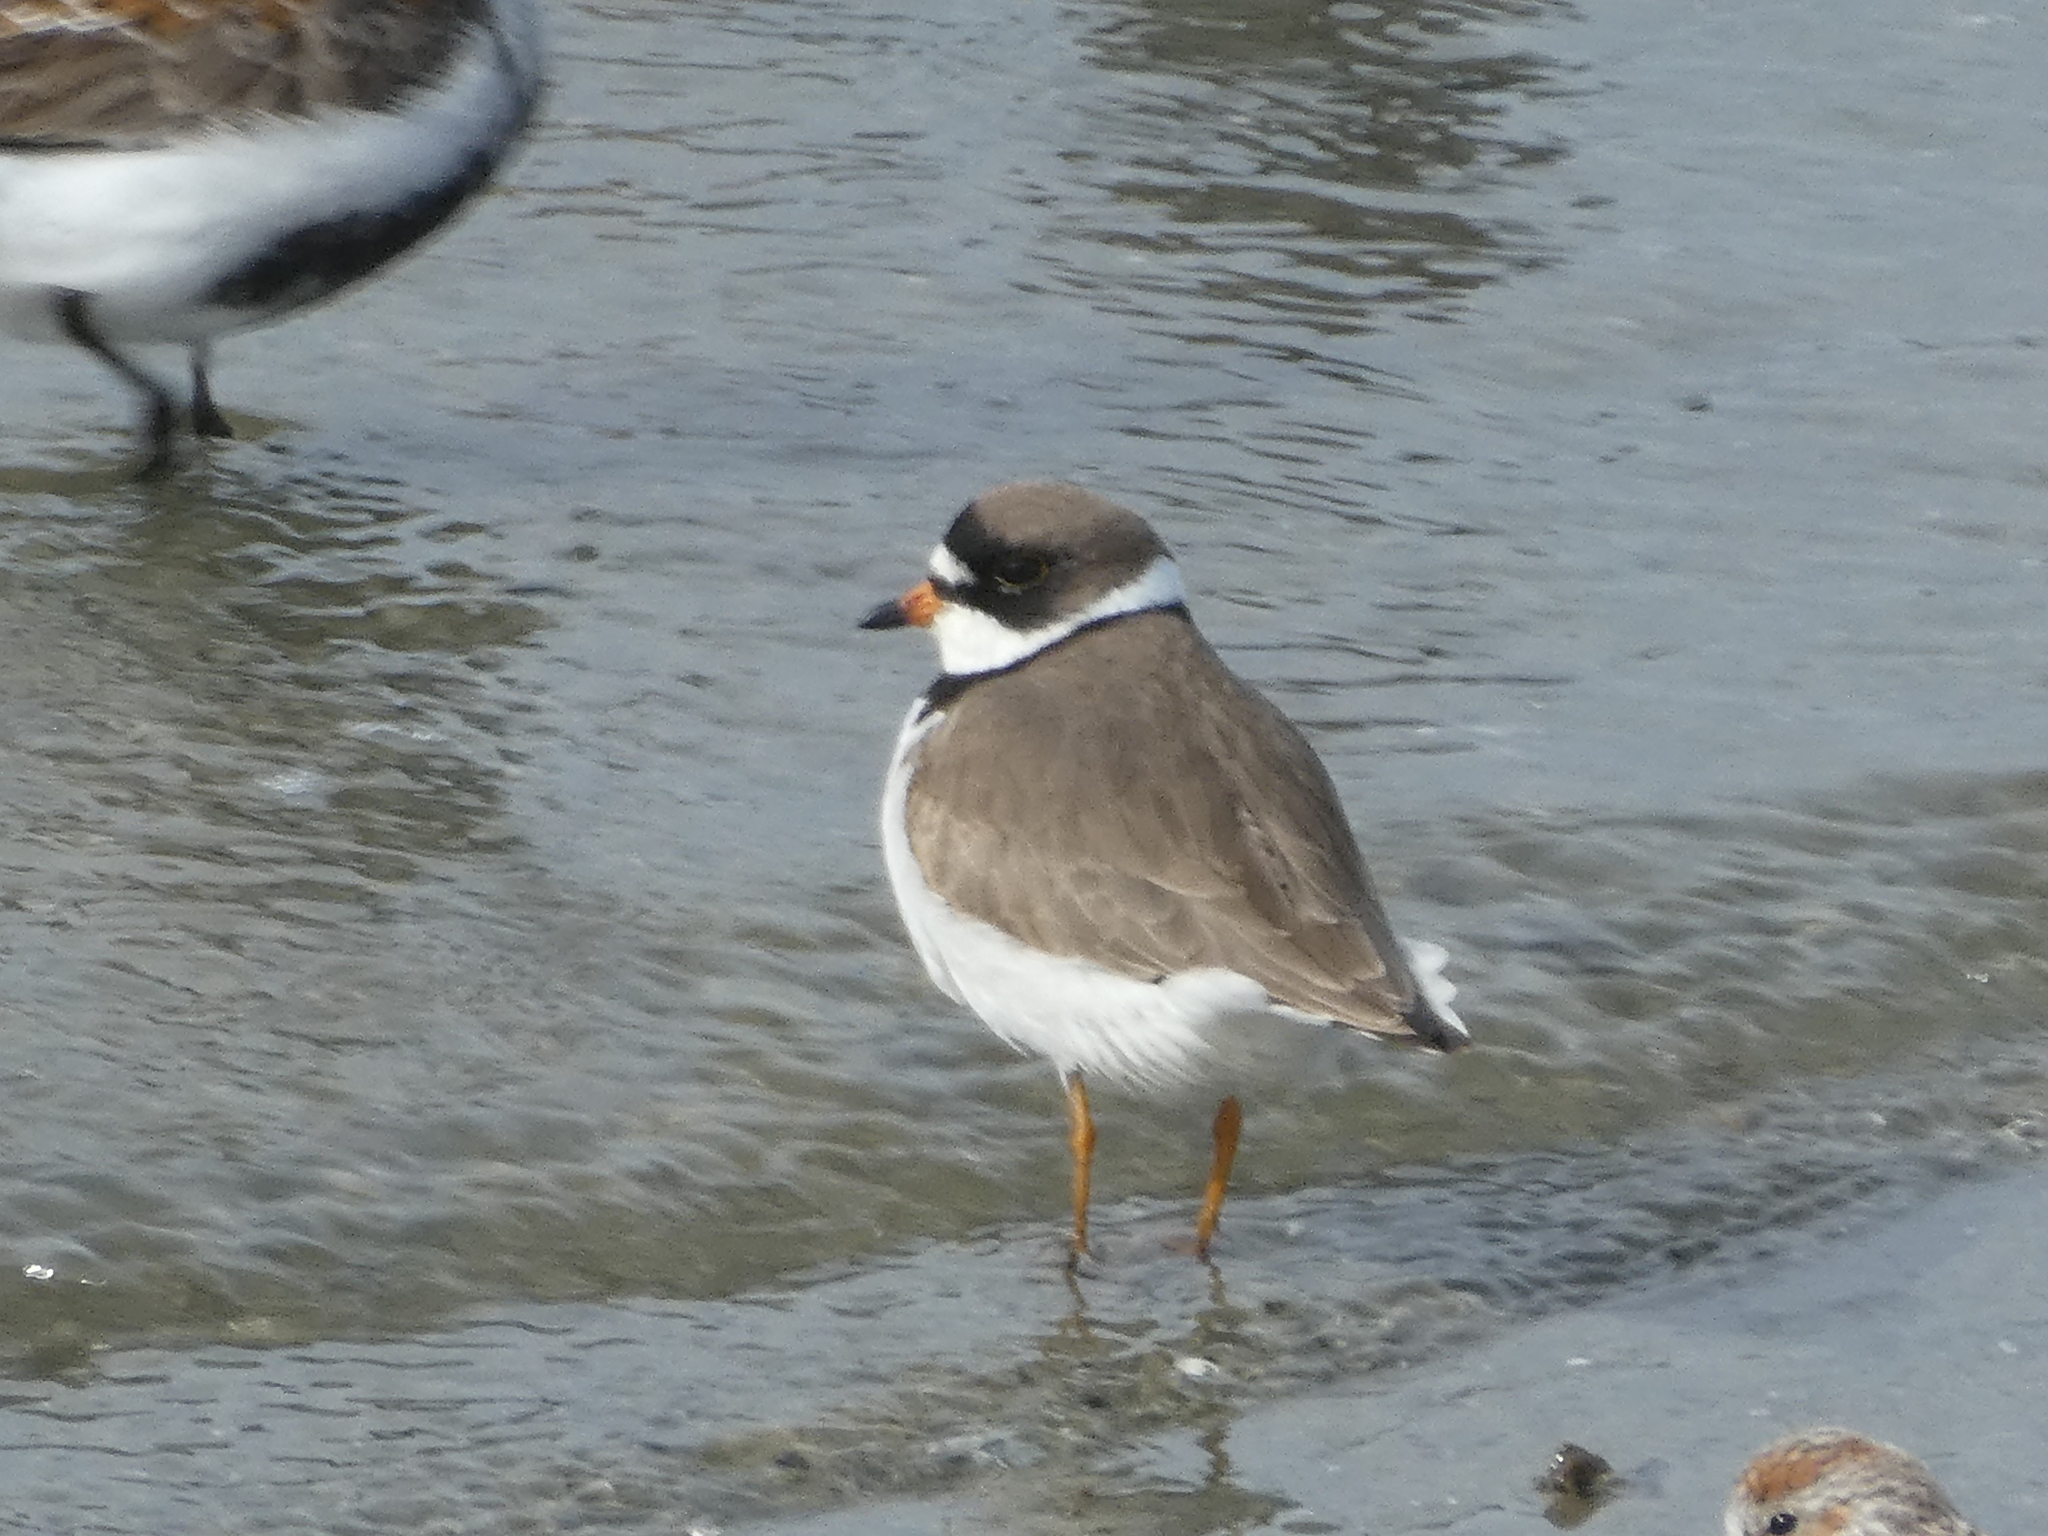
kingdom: Animalia
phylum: Chordata
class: Aves
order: Charadriiformes
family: Charadriidae
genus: Charadrius
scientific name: Charadrius semipalmatus
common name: Semipalmated plover
